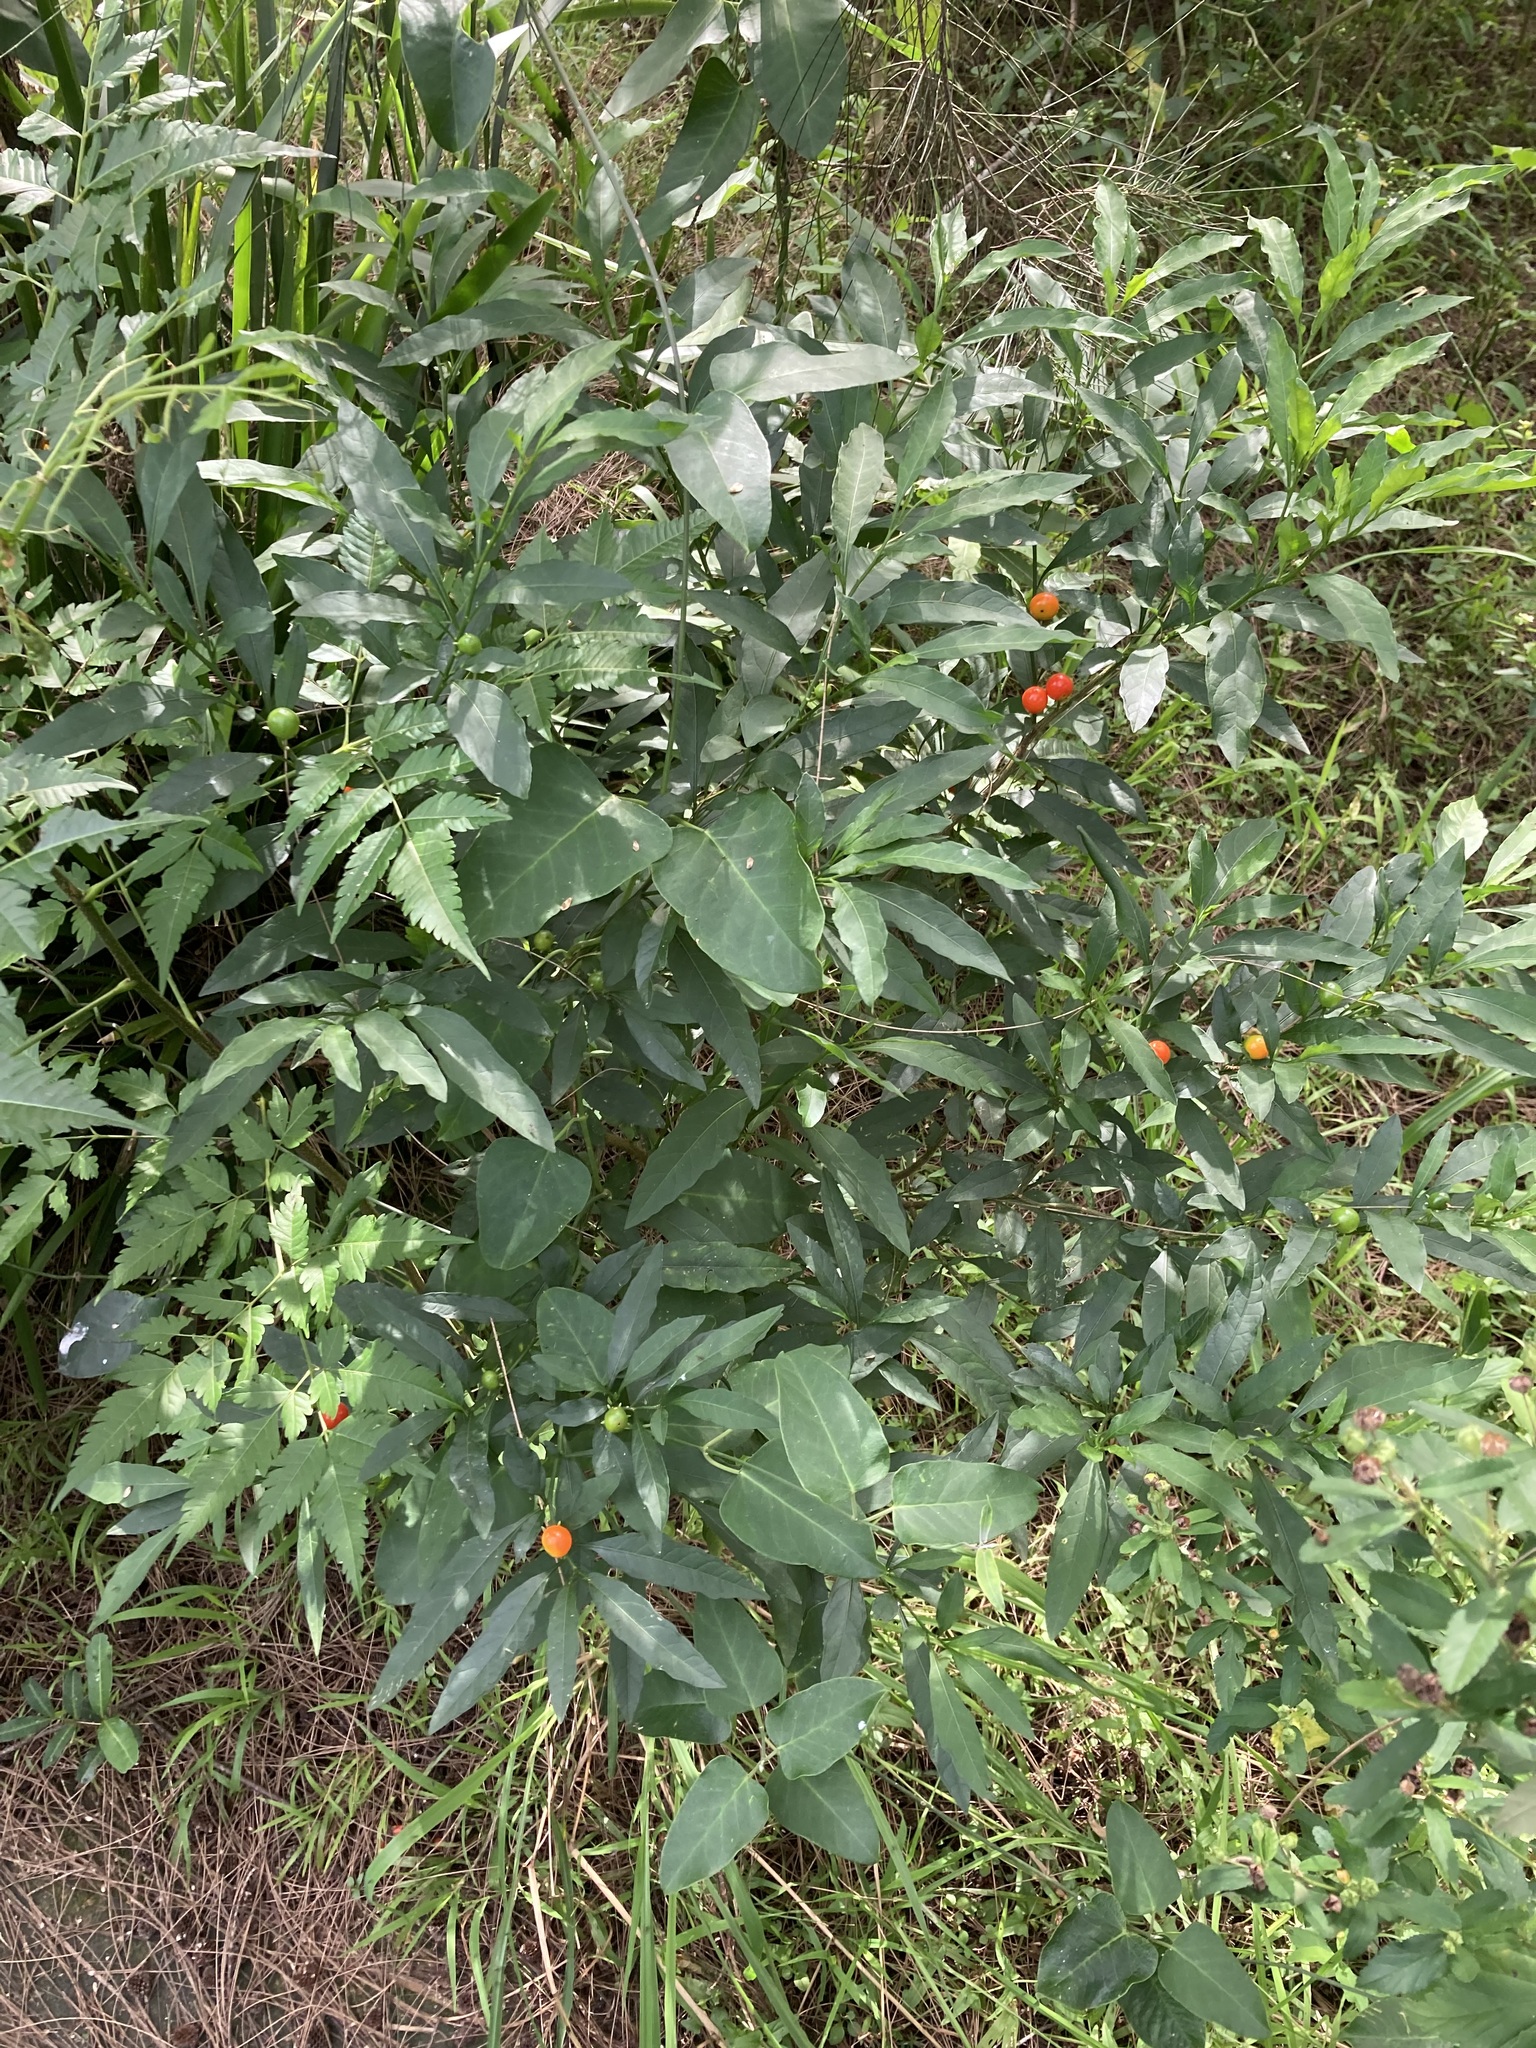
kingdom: Plantae
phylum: Tracheophyta
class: Magnoliopsida
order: Solanales
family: Solanaceae
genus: Solanum
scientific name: Solanum pseudocapsicum
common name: Jerusalem cherry
